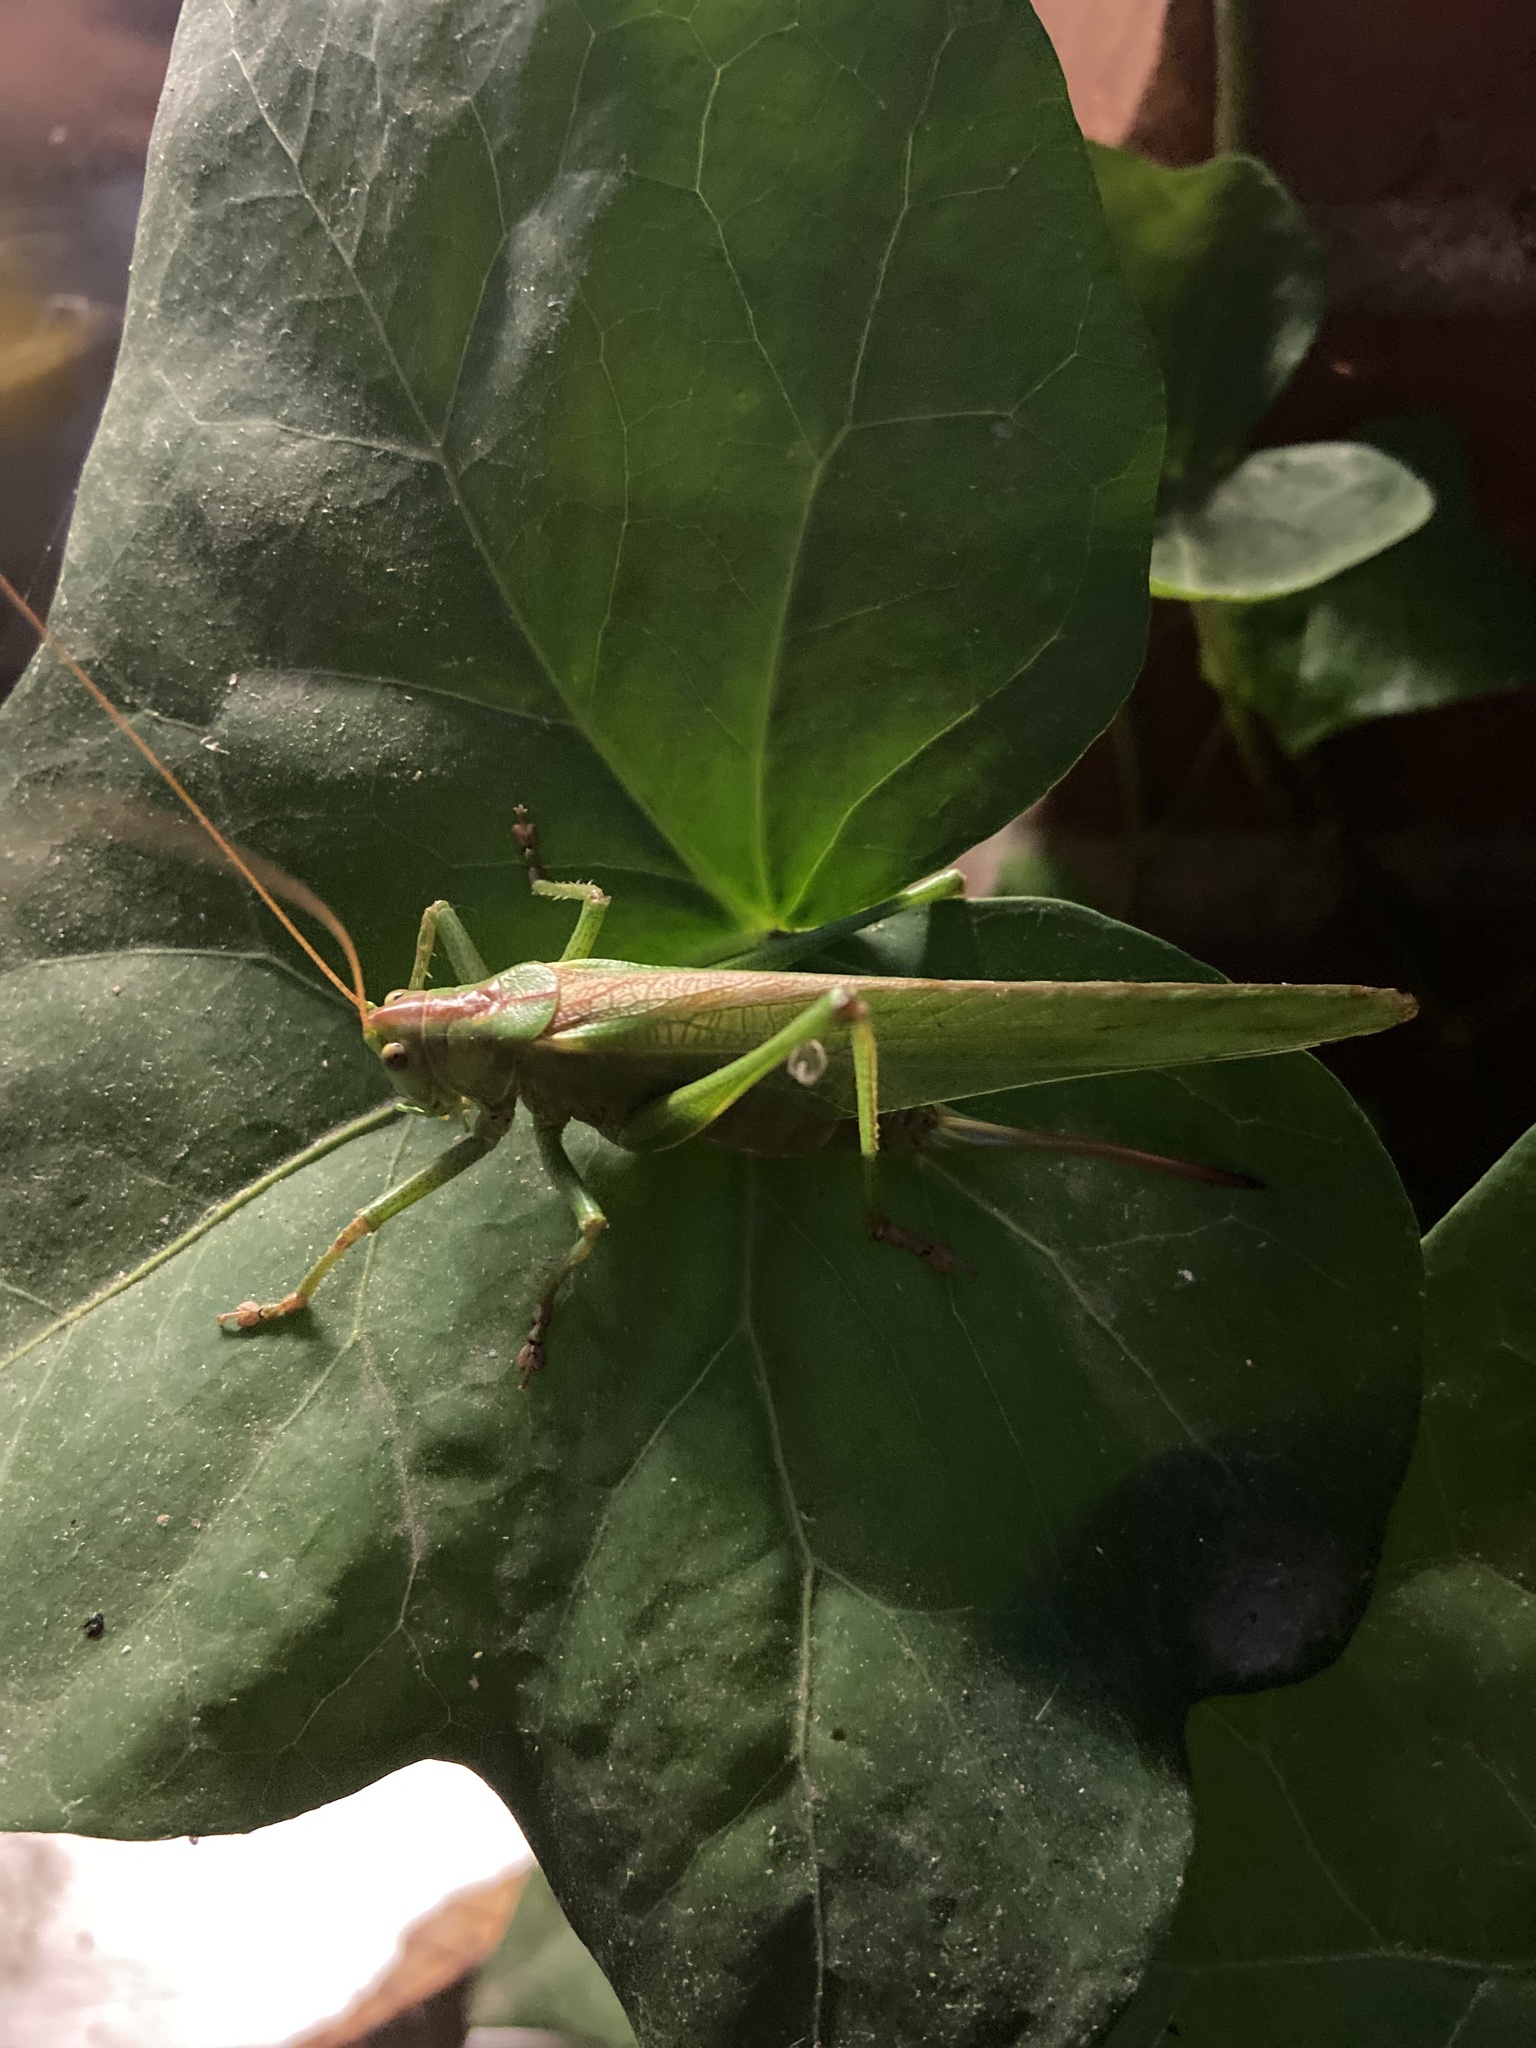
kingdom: Animalia
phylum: Arthropoda
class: Insecta
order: Orthoptera
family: Tettigoniidae
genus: Tettigonia
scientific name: Tettigonia viridissima
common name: Great green bush-cricket
